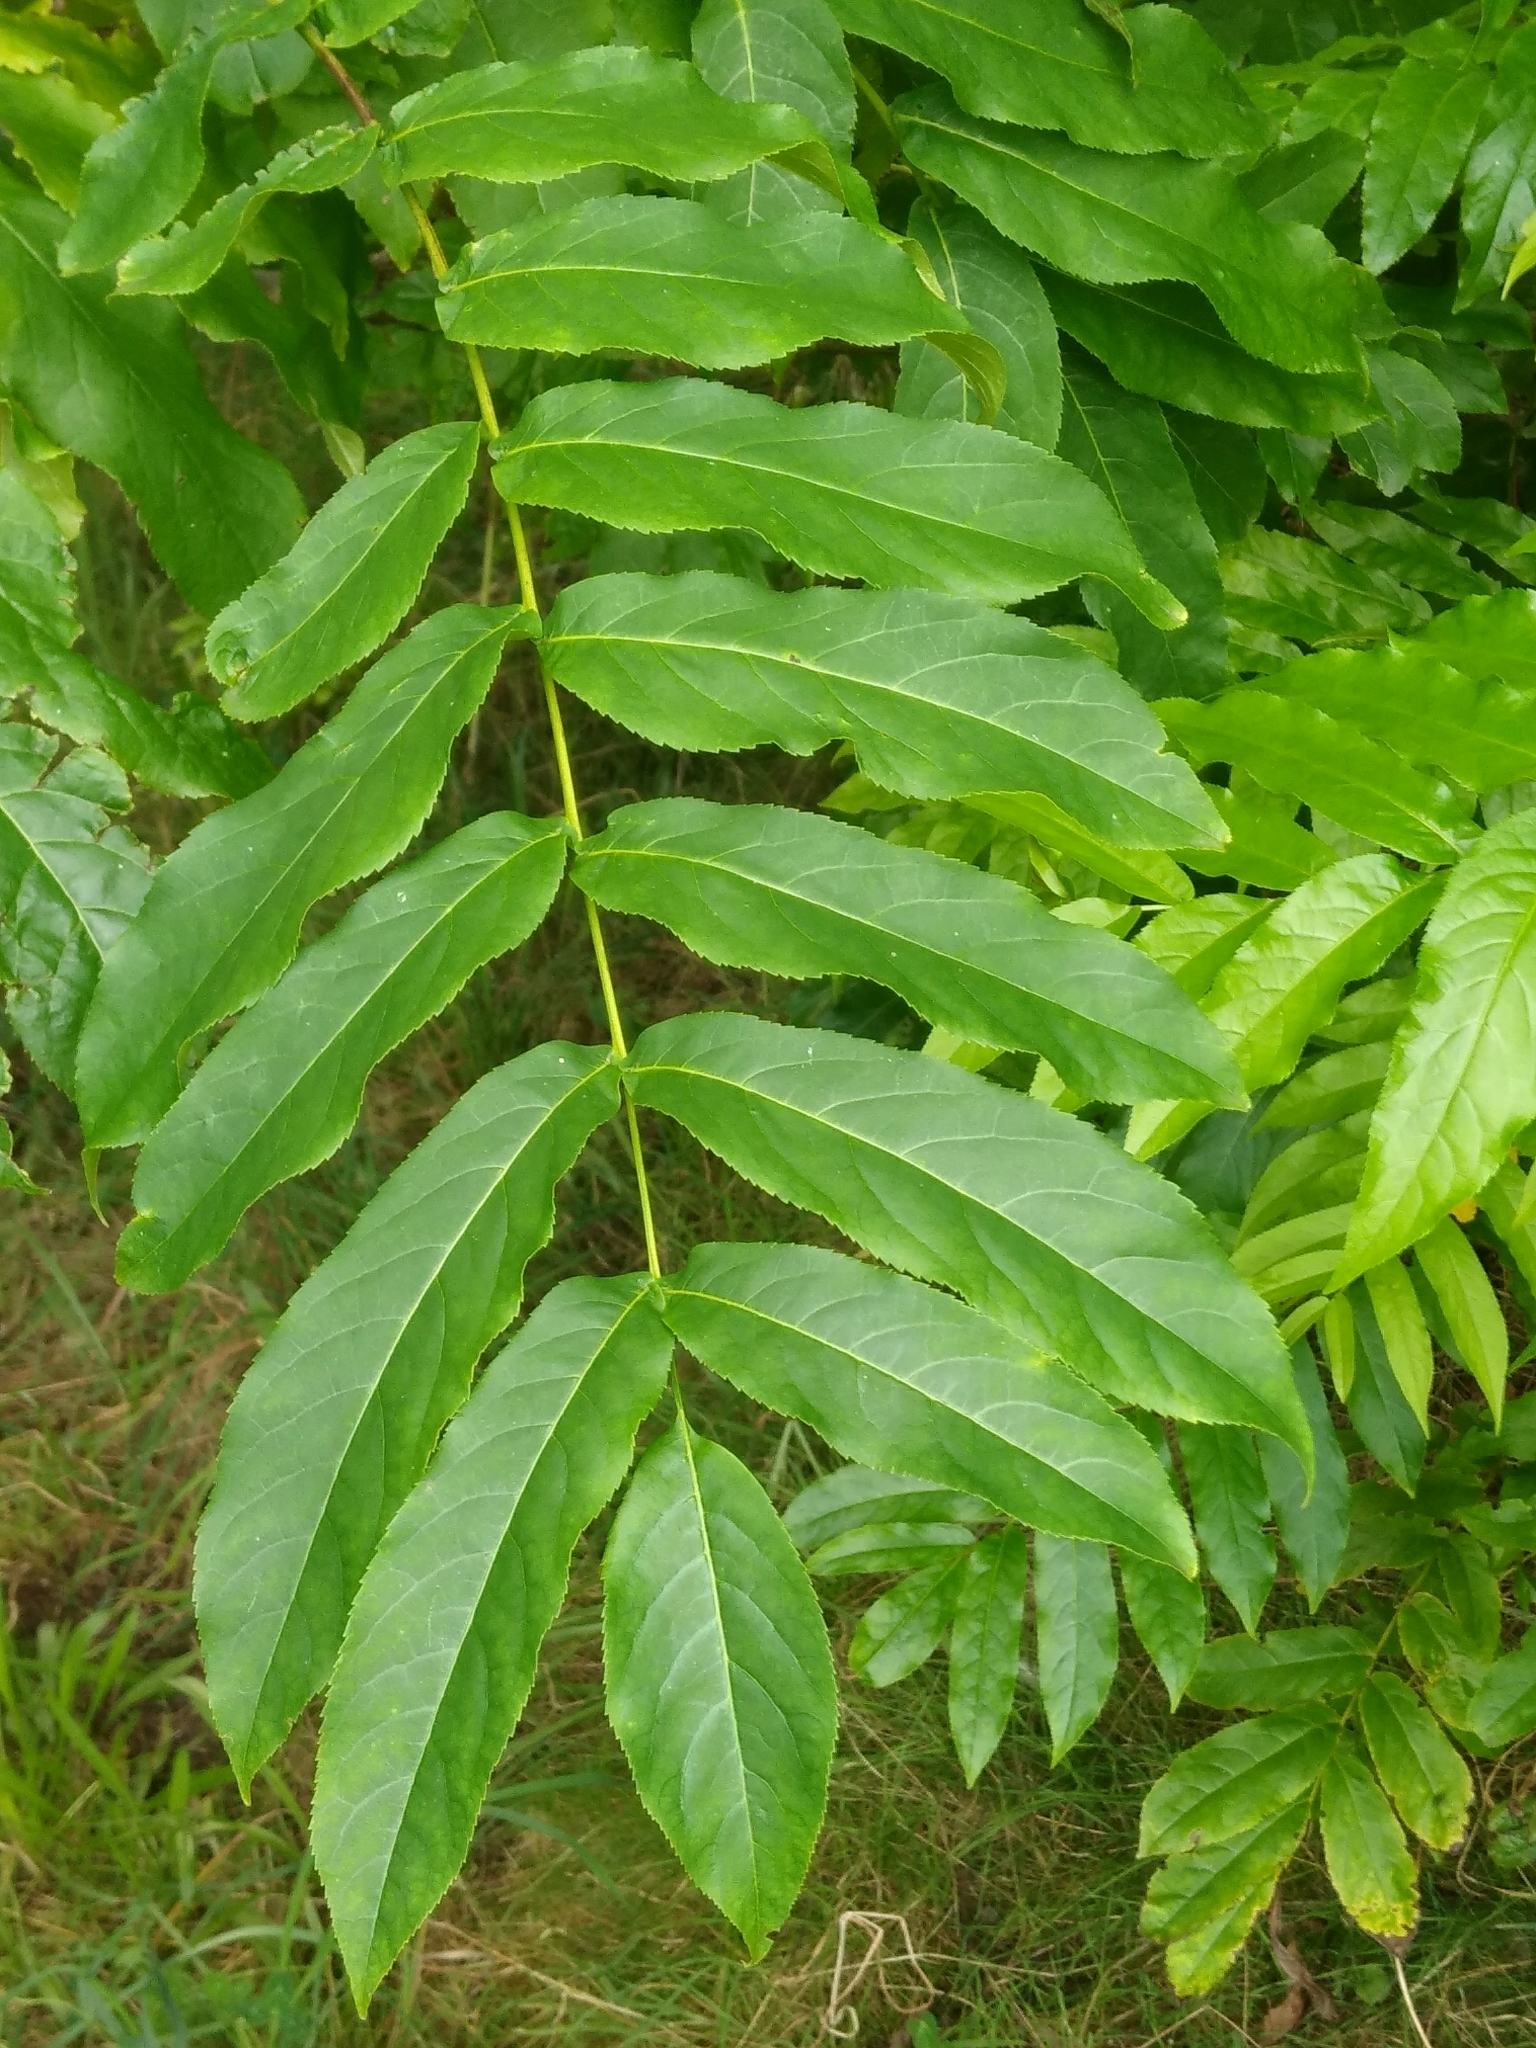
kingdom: Plantae
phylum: Tracheophyta
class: Magnoliopsida
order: Fagales
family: Juglandaceae
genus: Pterocarya
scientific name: Pterocarya fraxinifolia
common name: Caucasian wingnut
